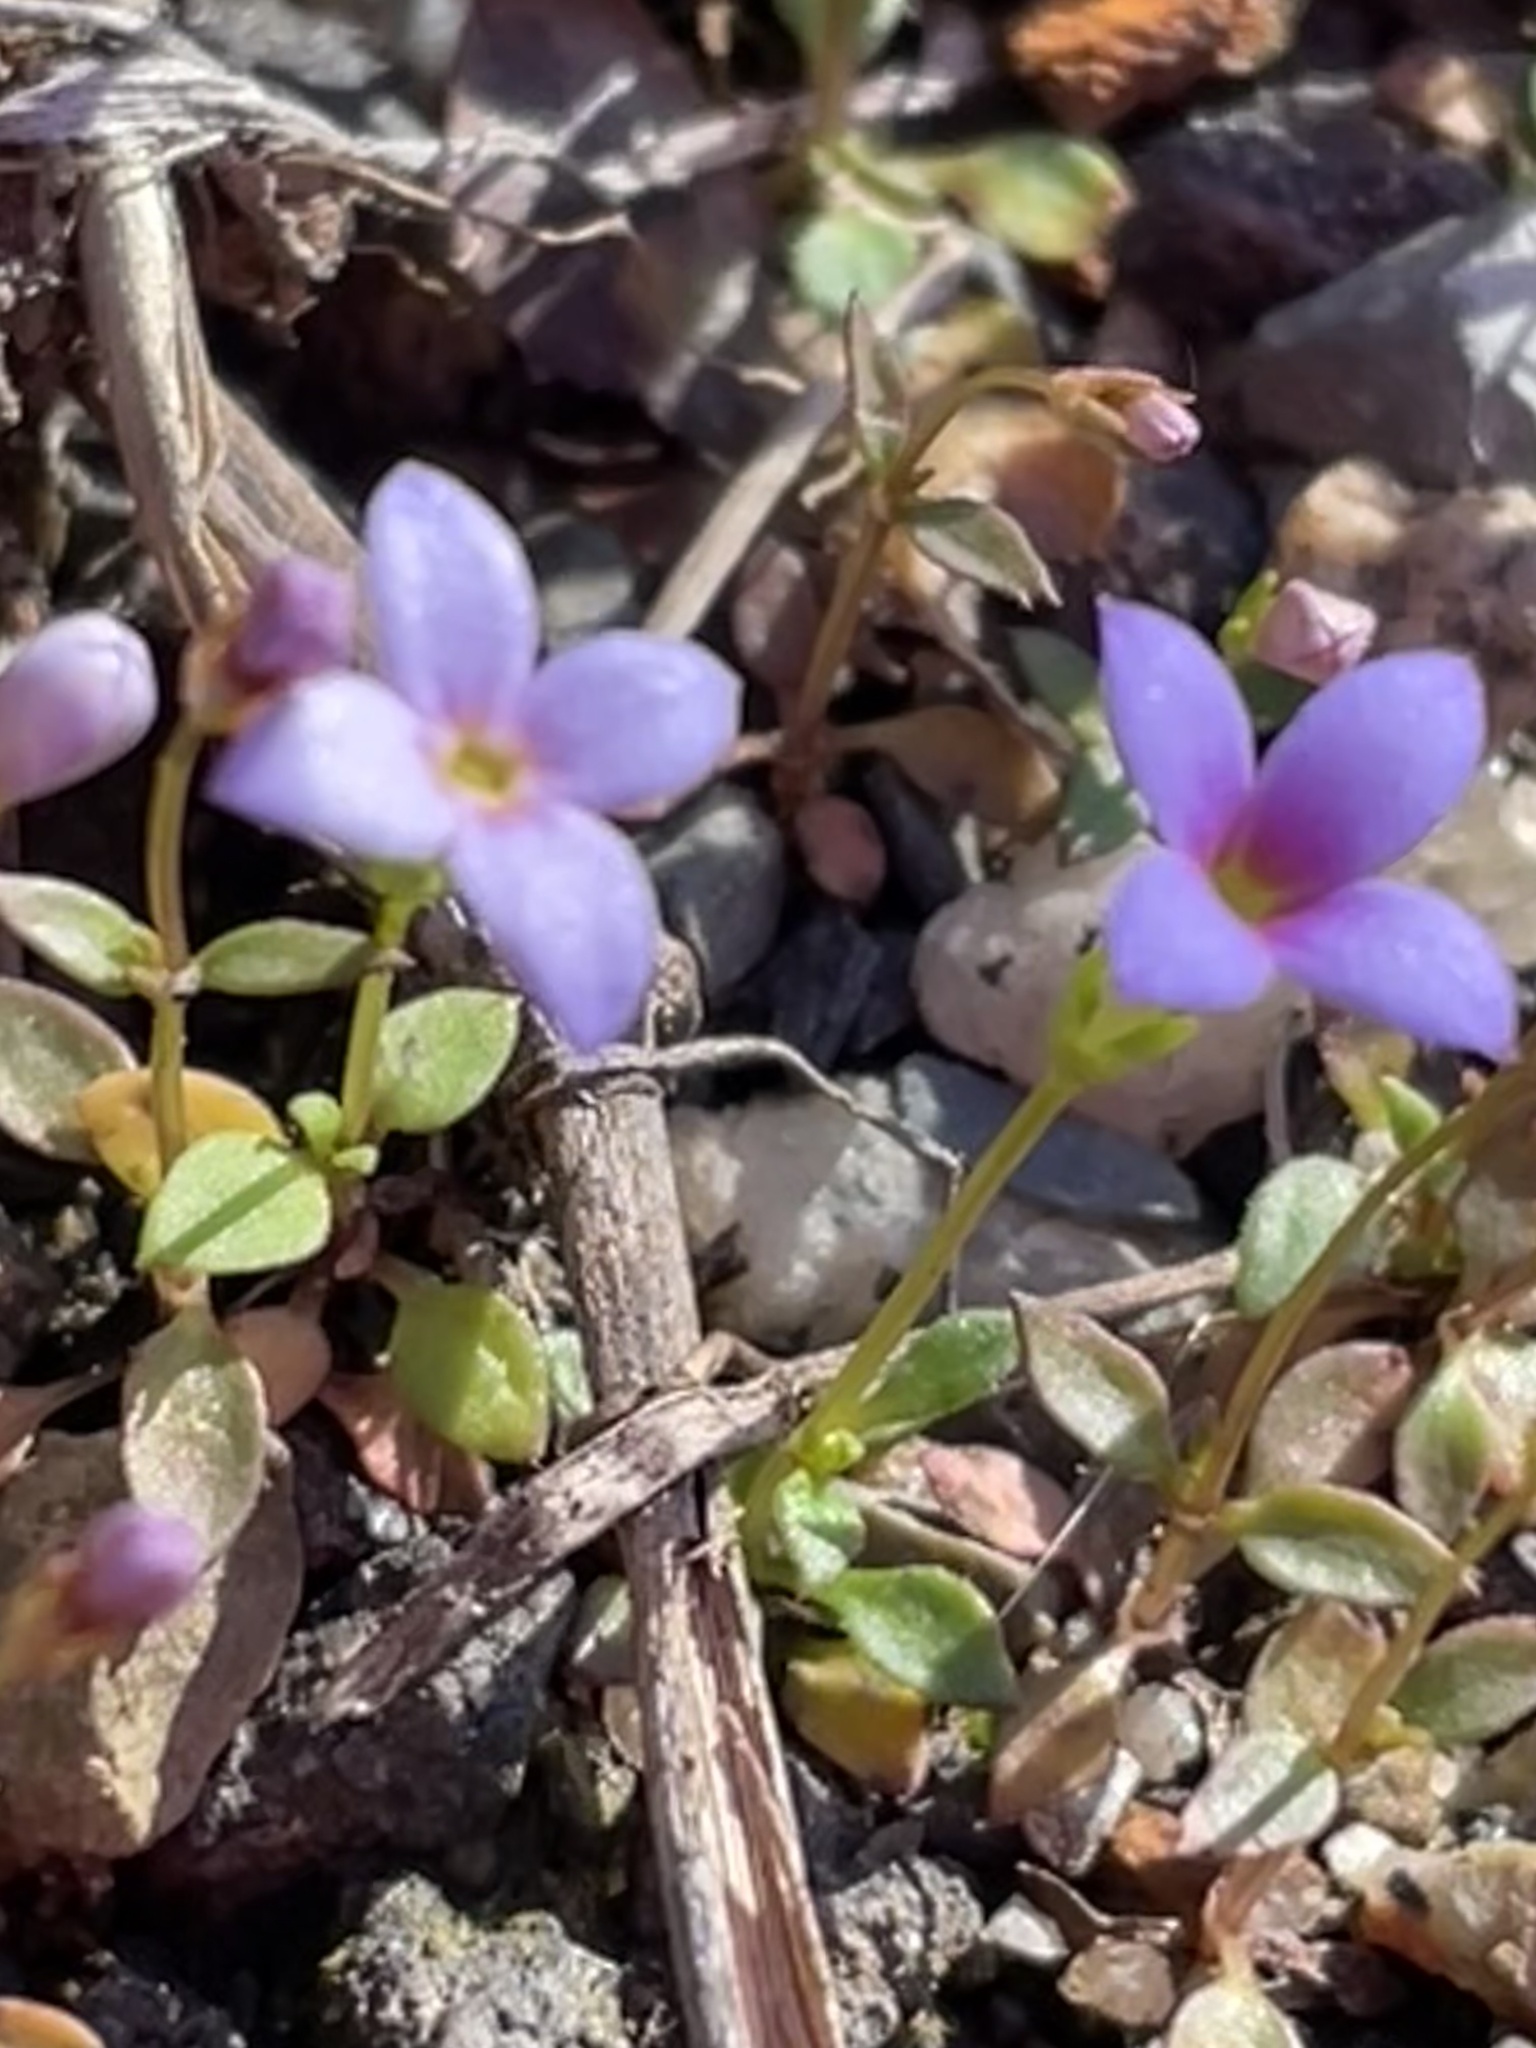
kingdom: Plantae
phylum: Tracheophyta
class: Magnoliopsida
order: Gentianales
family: Rubiaceae
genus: Houstonia
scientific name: Houstonia pusilla
